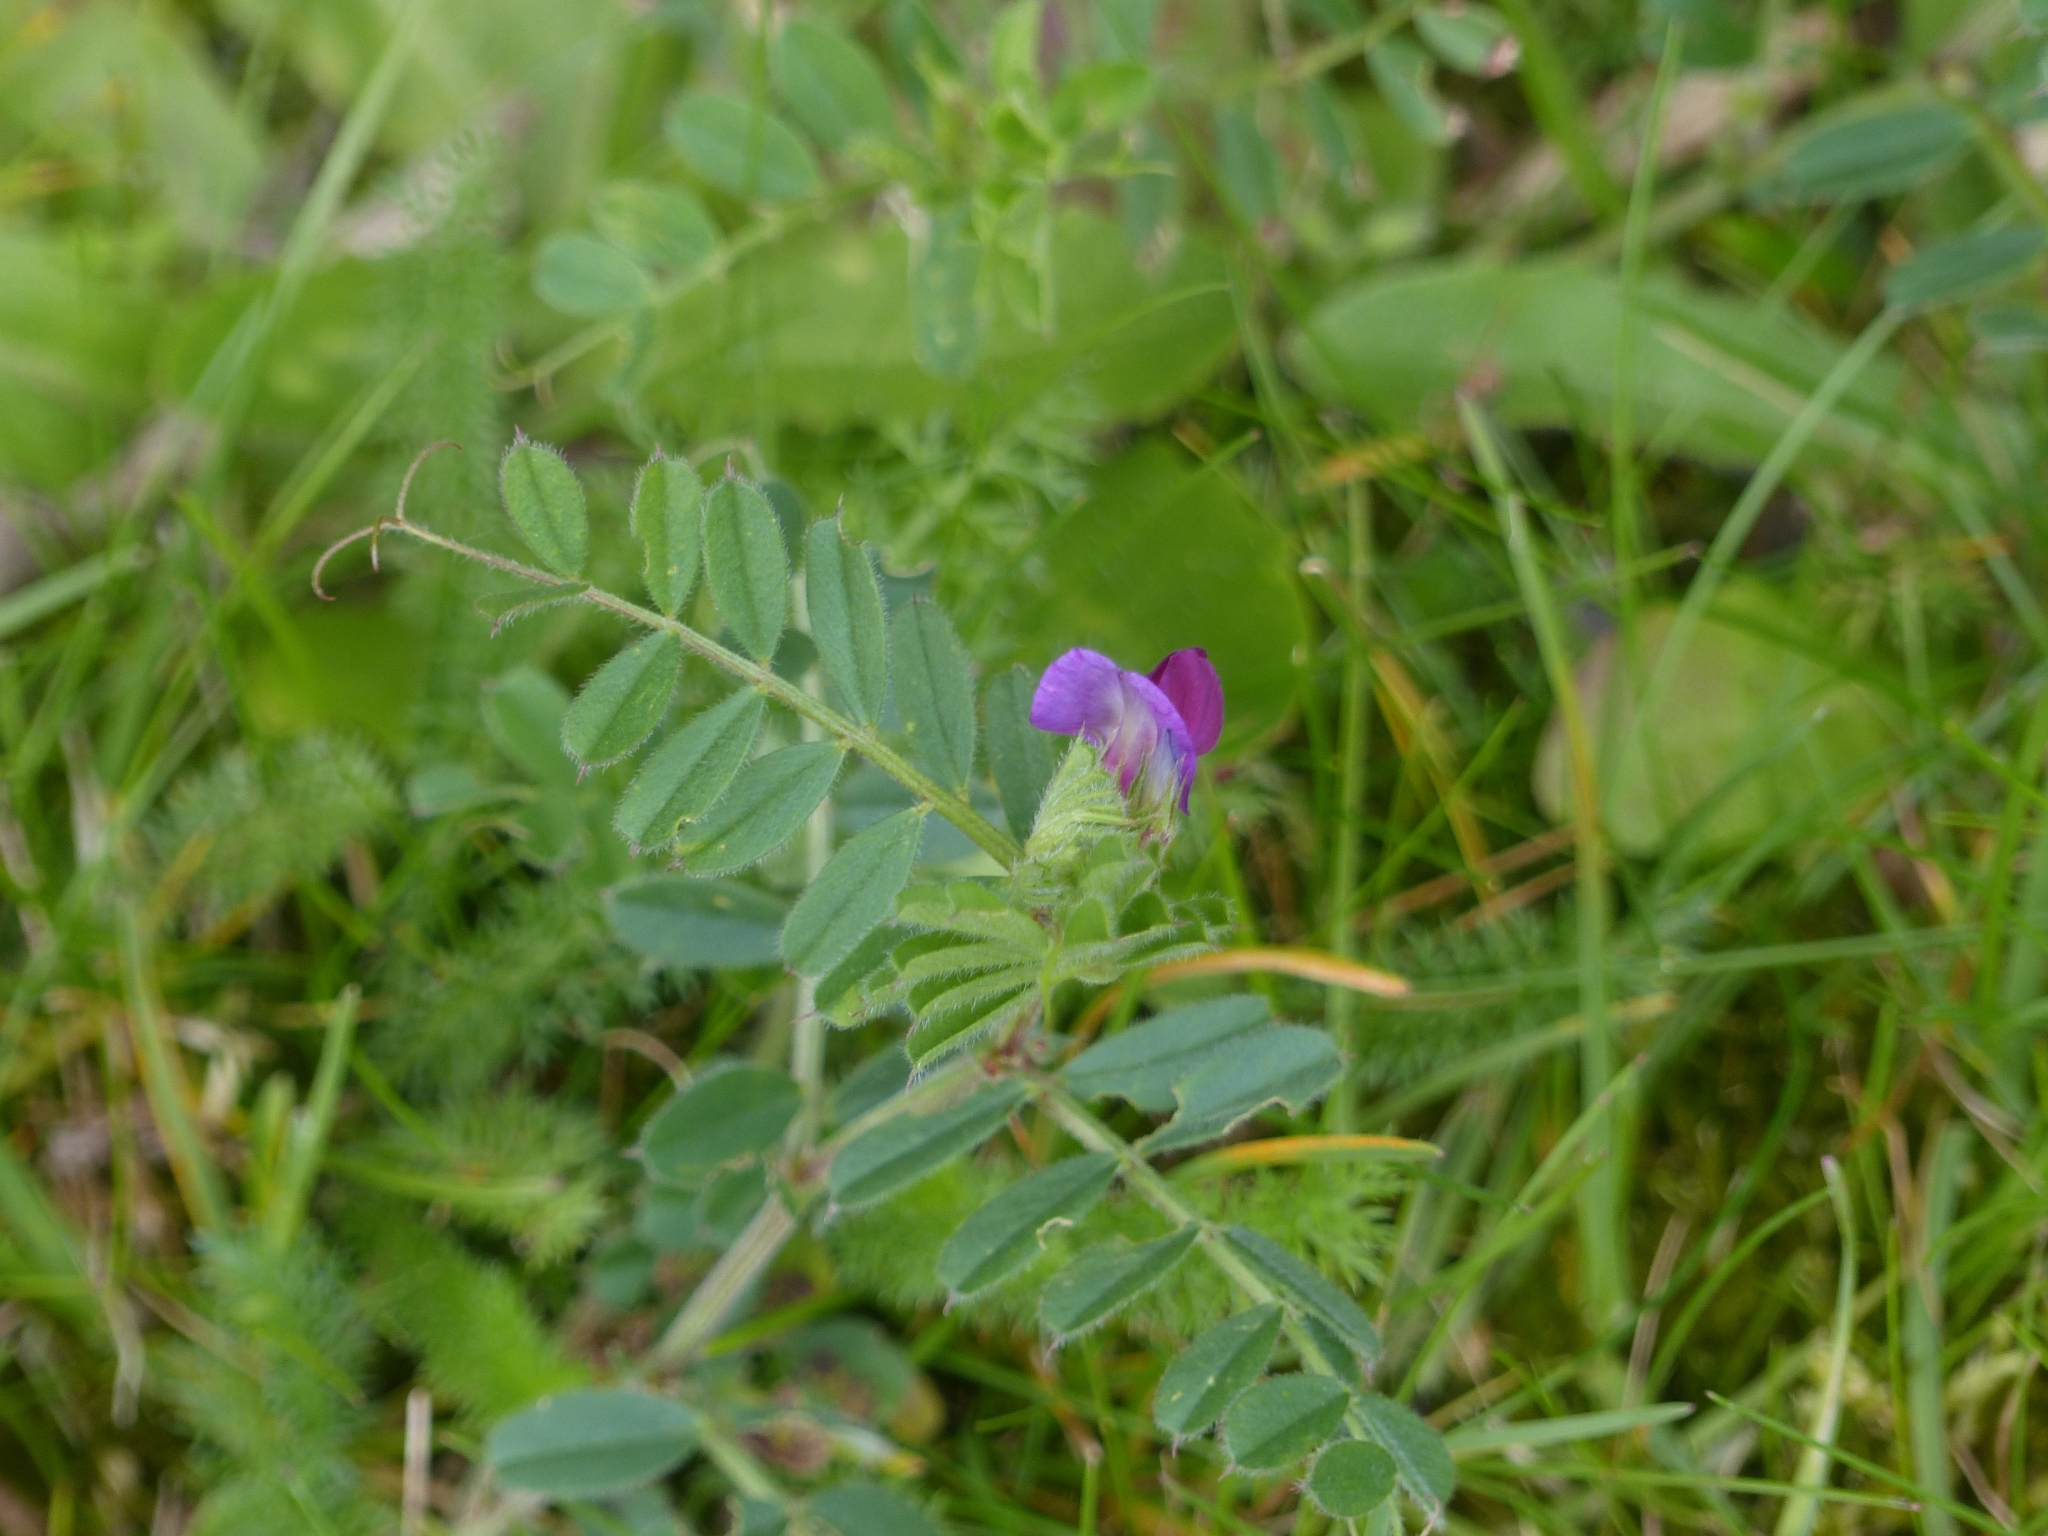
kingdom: Plantae
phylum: Tracheophyta
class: Magnoliopsida
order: Fabales
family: Fabaceae
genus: Vicia
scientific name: Vicia sativa
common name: Garden vetch
